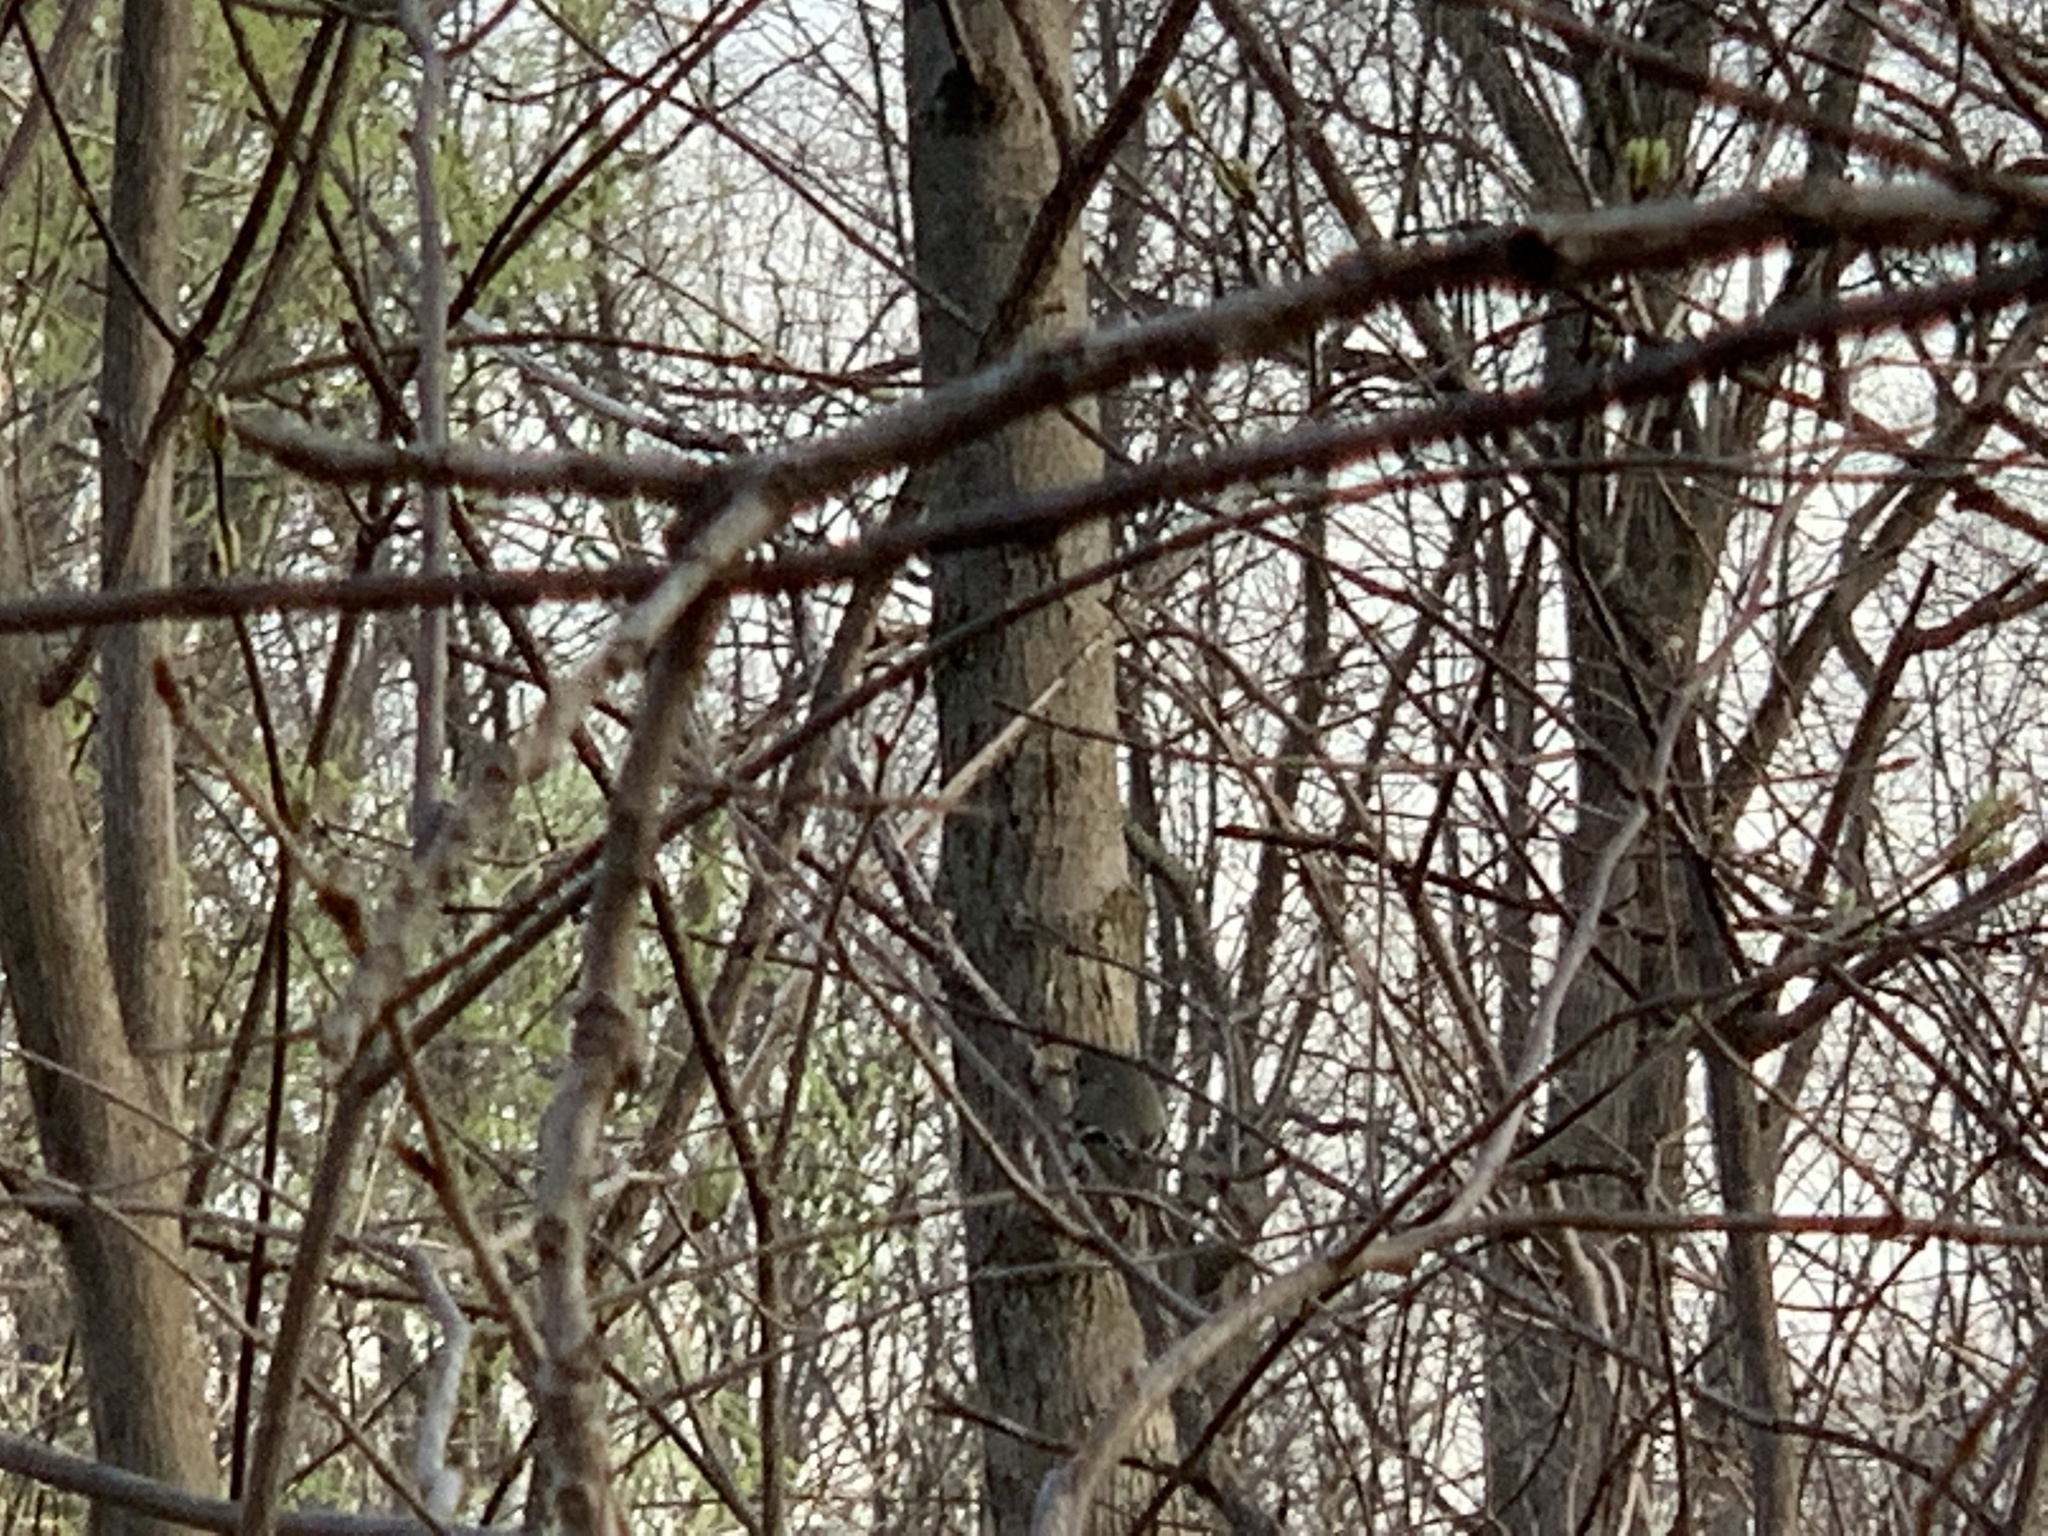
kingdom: Animalia
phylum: Chordata
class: Aves
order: Passeriformes
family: Regulidae
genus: Regulus
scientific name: Regulus calendula
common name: Ruby-crowned kinglet
